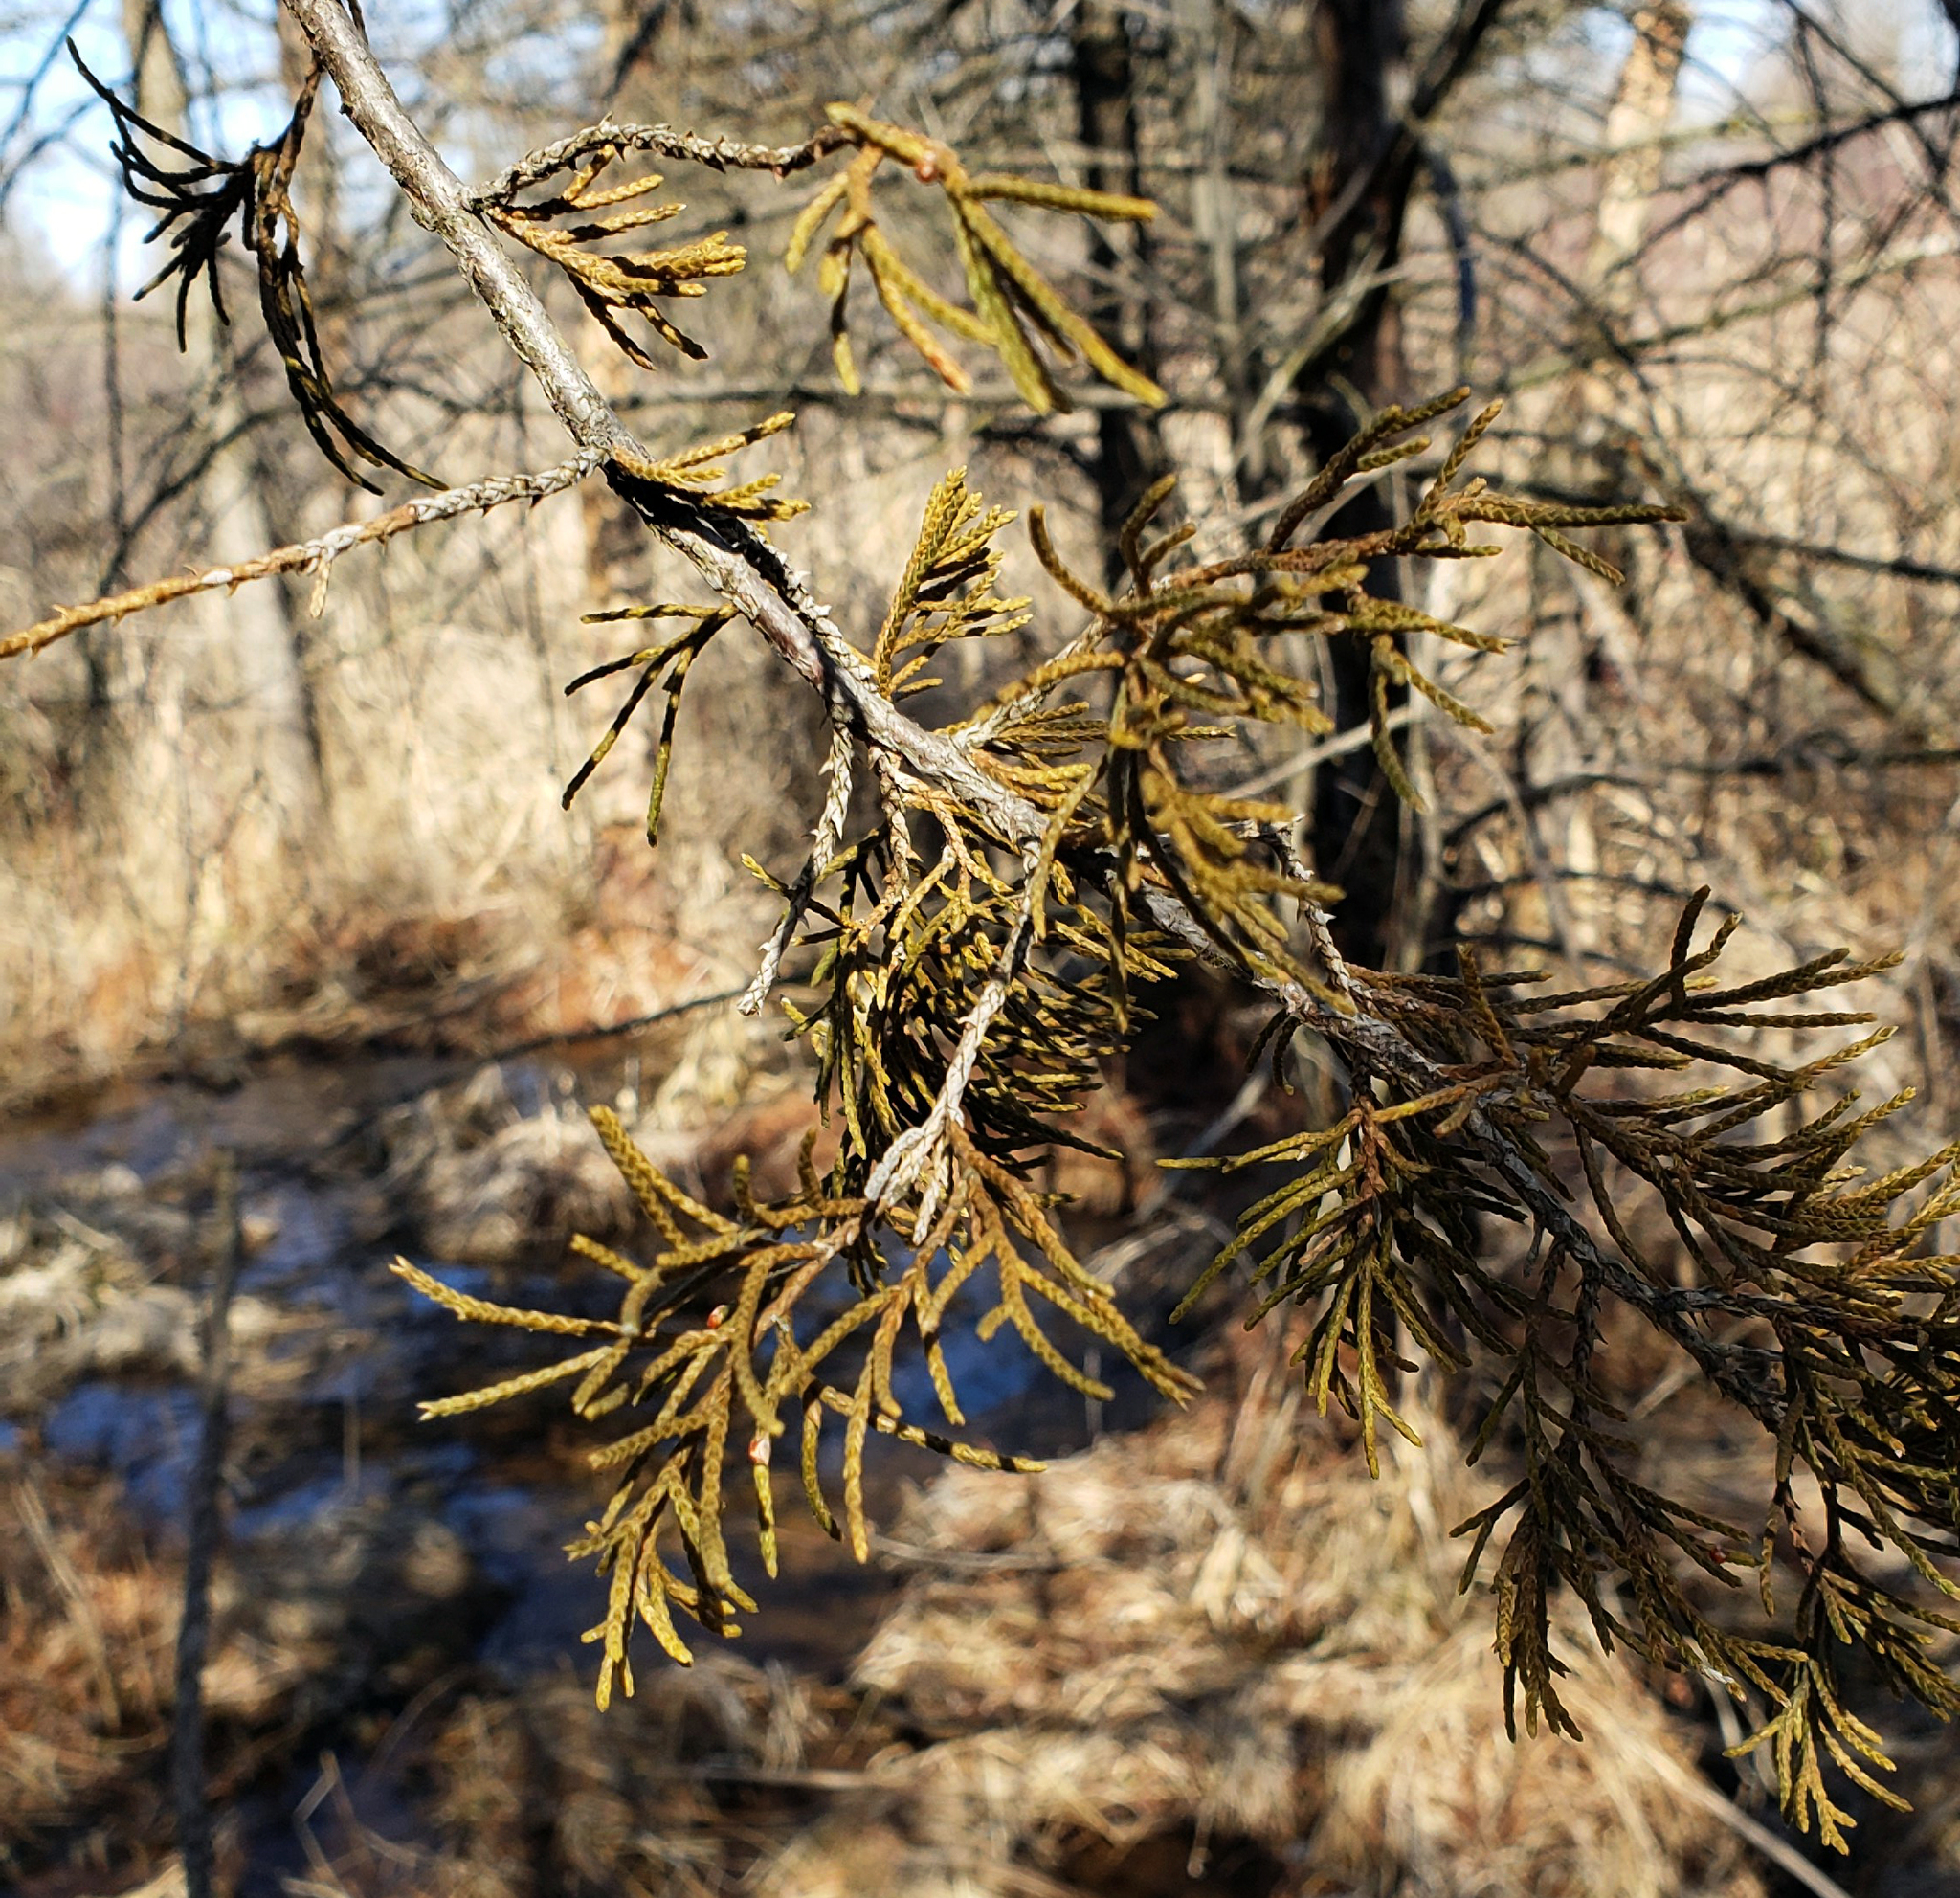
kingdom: Plantae
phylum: Tracheophyta
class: Pinopsida
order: Pinales
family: Cupressaceae
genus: Juniperus
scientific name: Juniperus virginiana
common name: Red juniper
